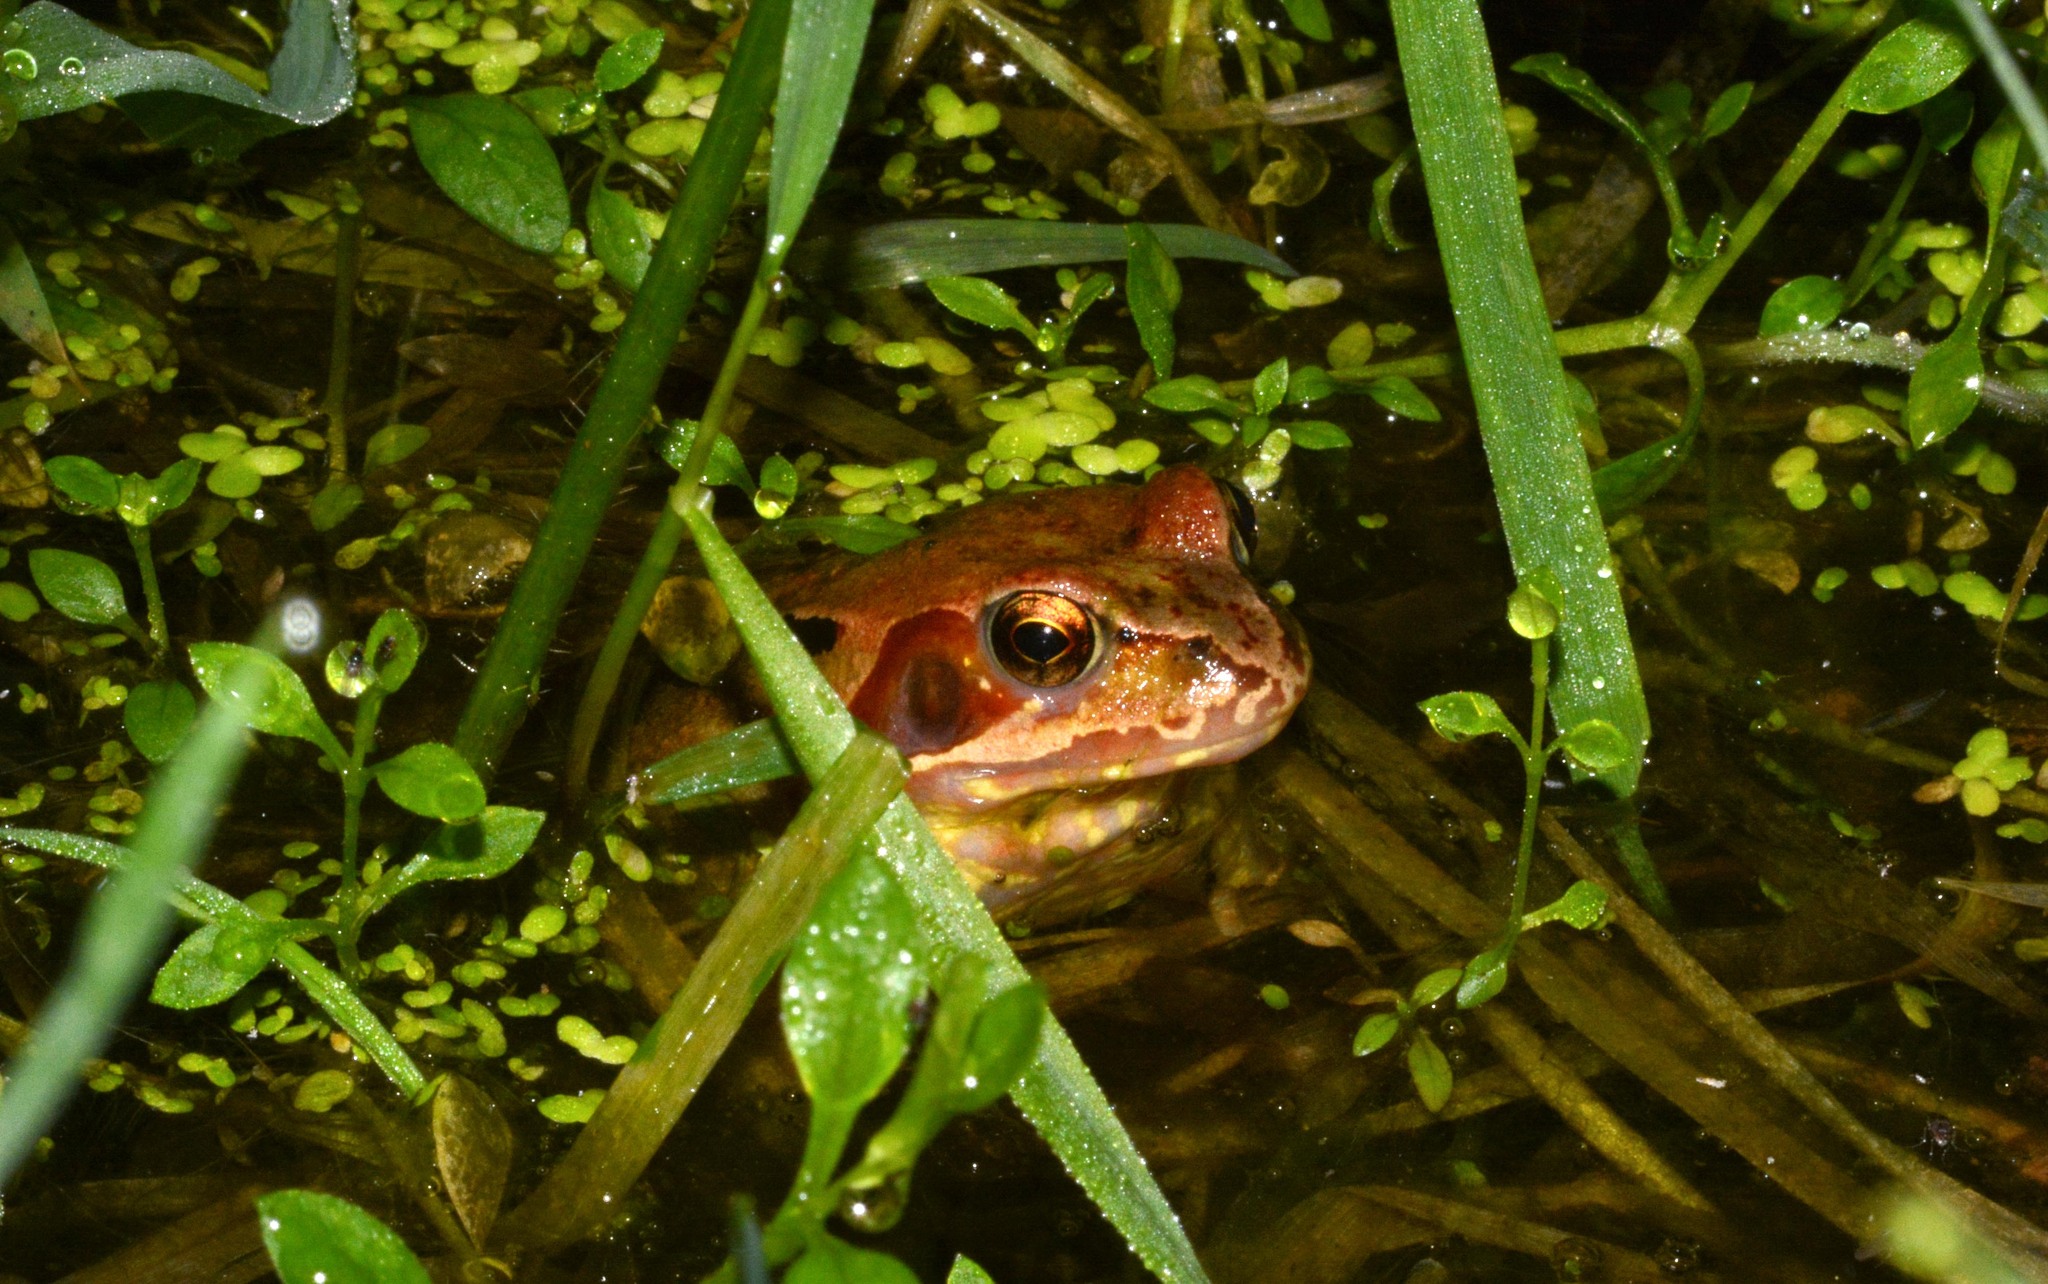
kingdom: Animalia
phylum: Chordata
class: Amphibia
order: Anura
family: Ranidae
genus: Rana
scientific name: Rana temporaria
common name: Common frog
